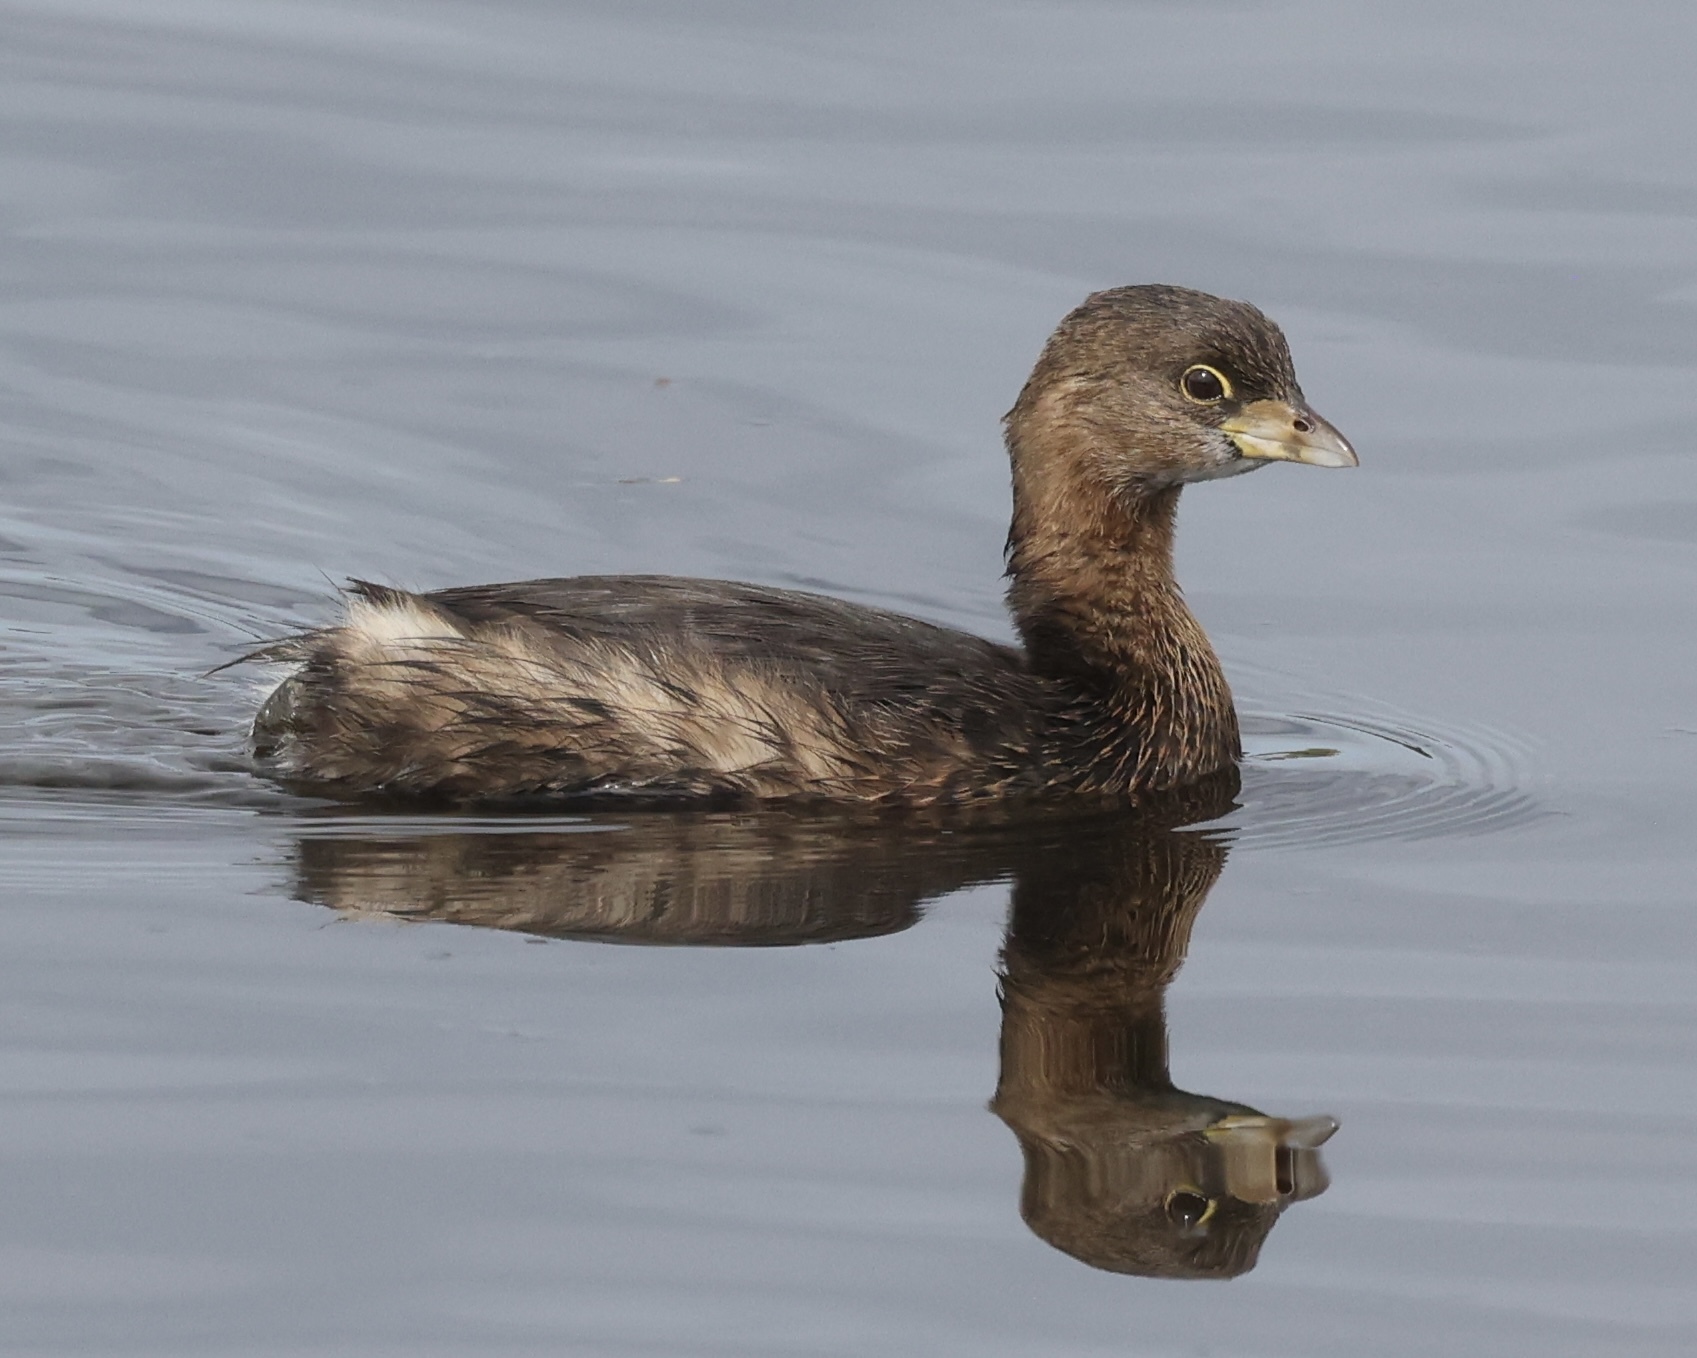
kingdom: Animalia
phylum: Chordata
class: Aves
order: Podicipediformes
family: Podicipedidae
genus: Podilymbus
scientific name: Podilymbus podiceps
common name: Pied-billed grebe
